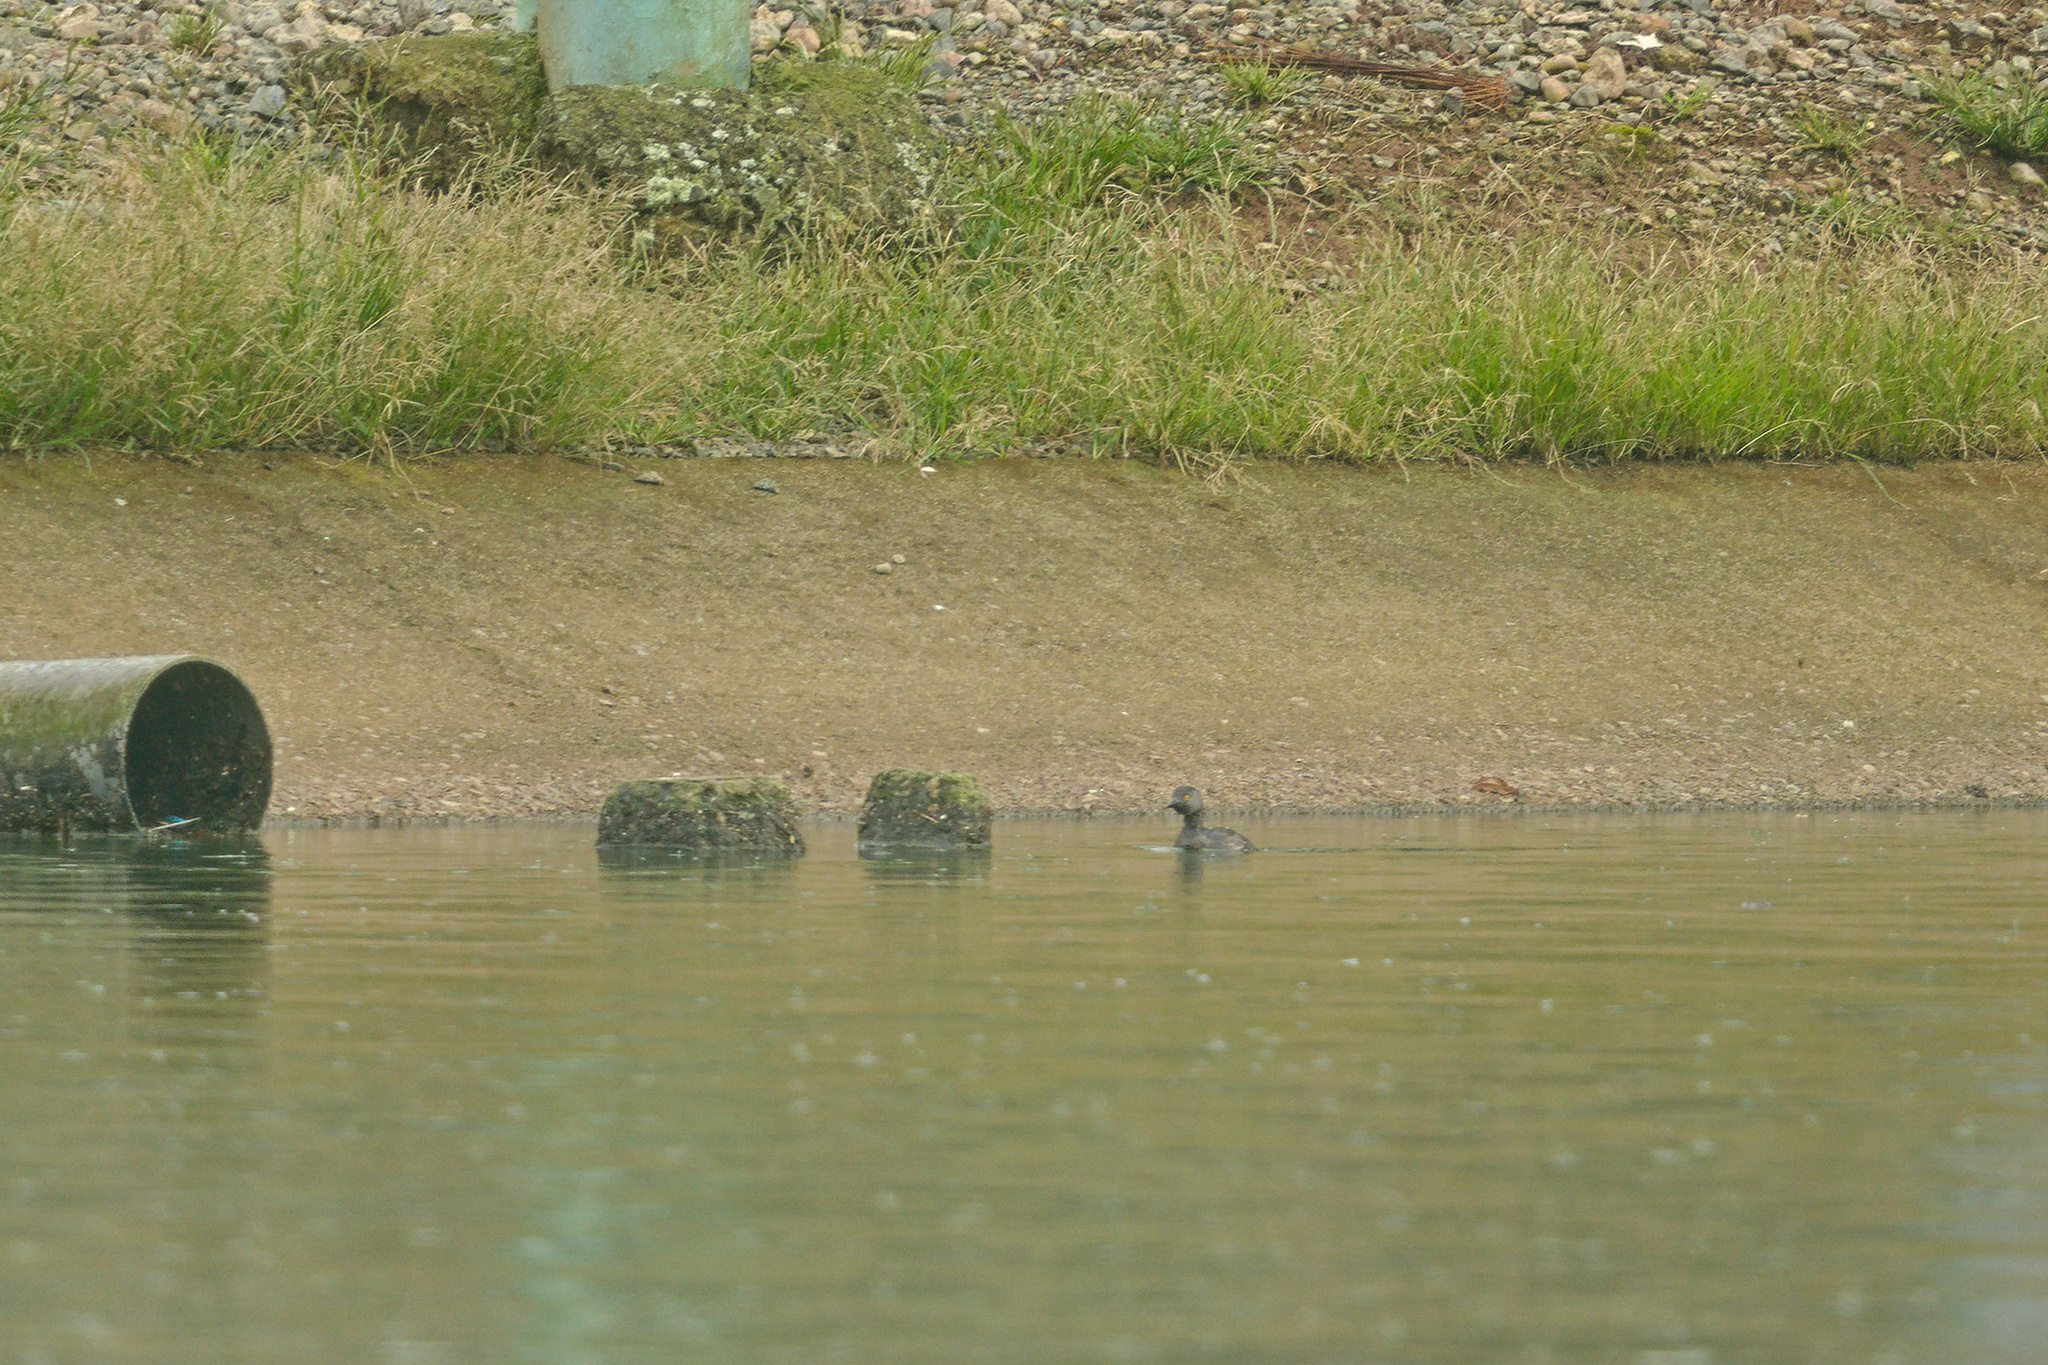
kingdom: Animalia
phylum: Chordata
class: Aves
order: Podicipediformes
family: Podicipedidae
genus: Tachybaptus
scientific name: Tachybaptus dominicus
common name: Least grebe
